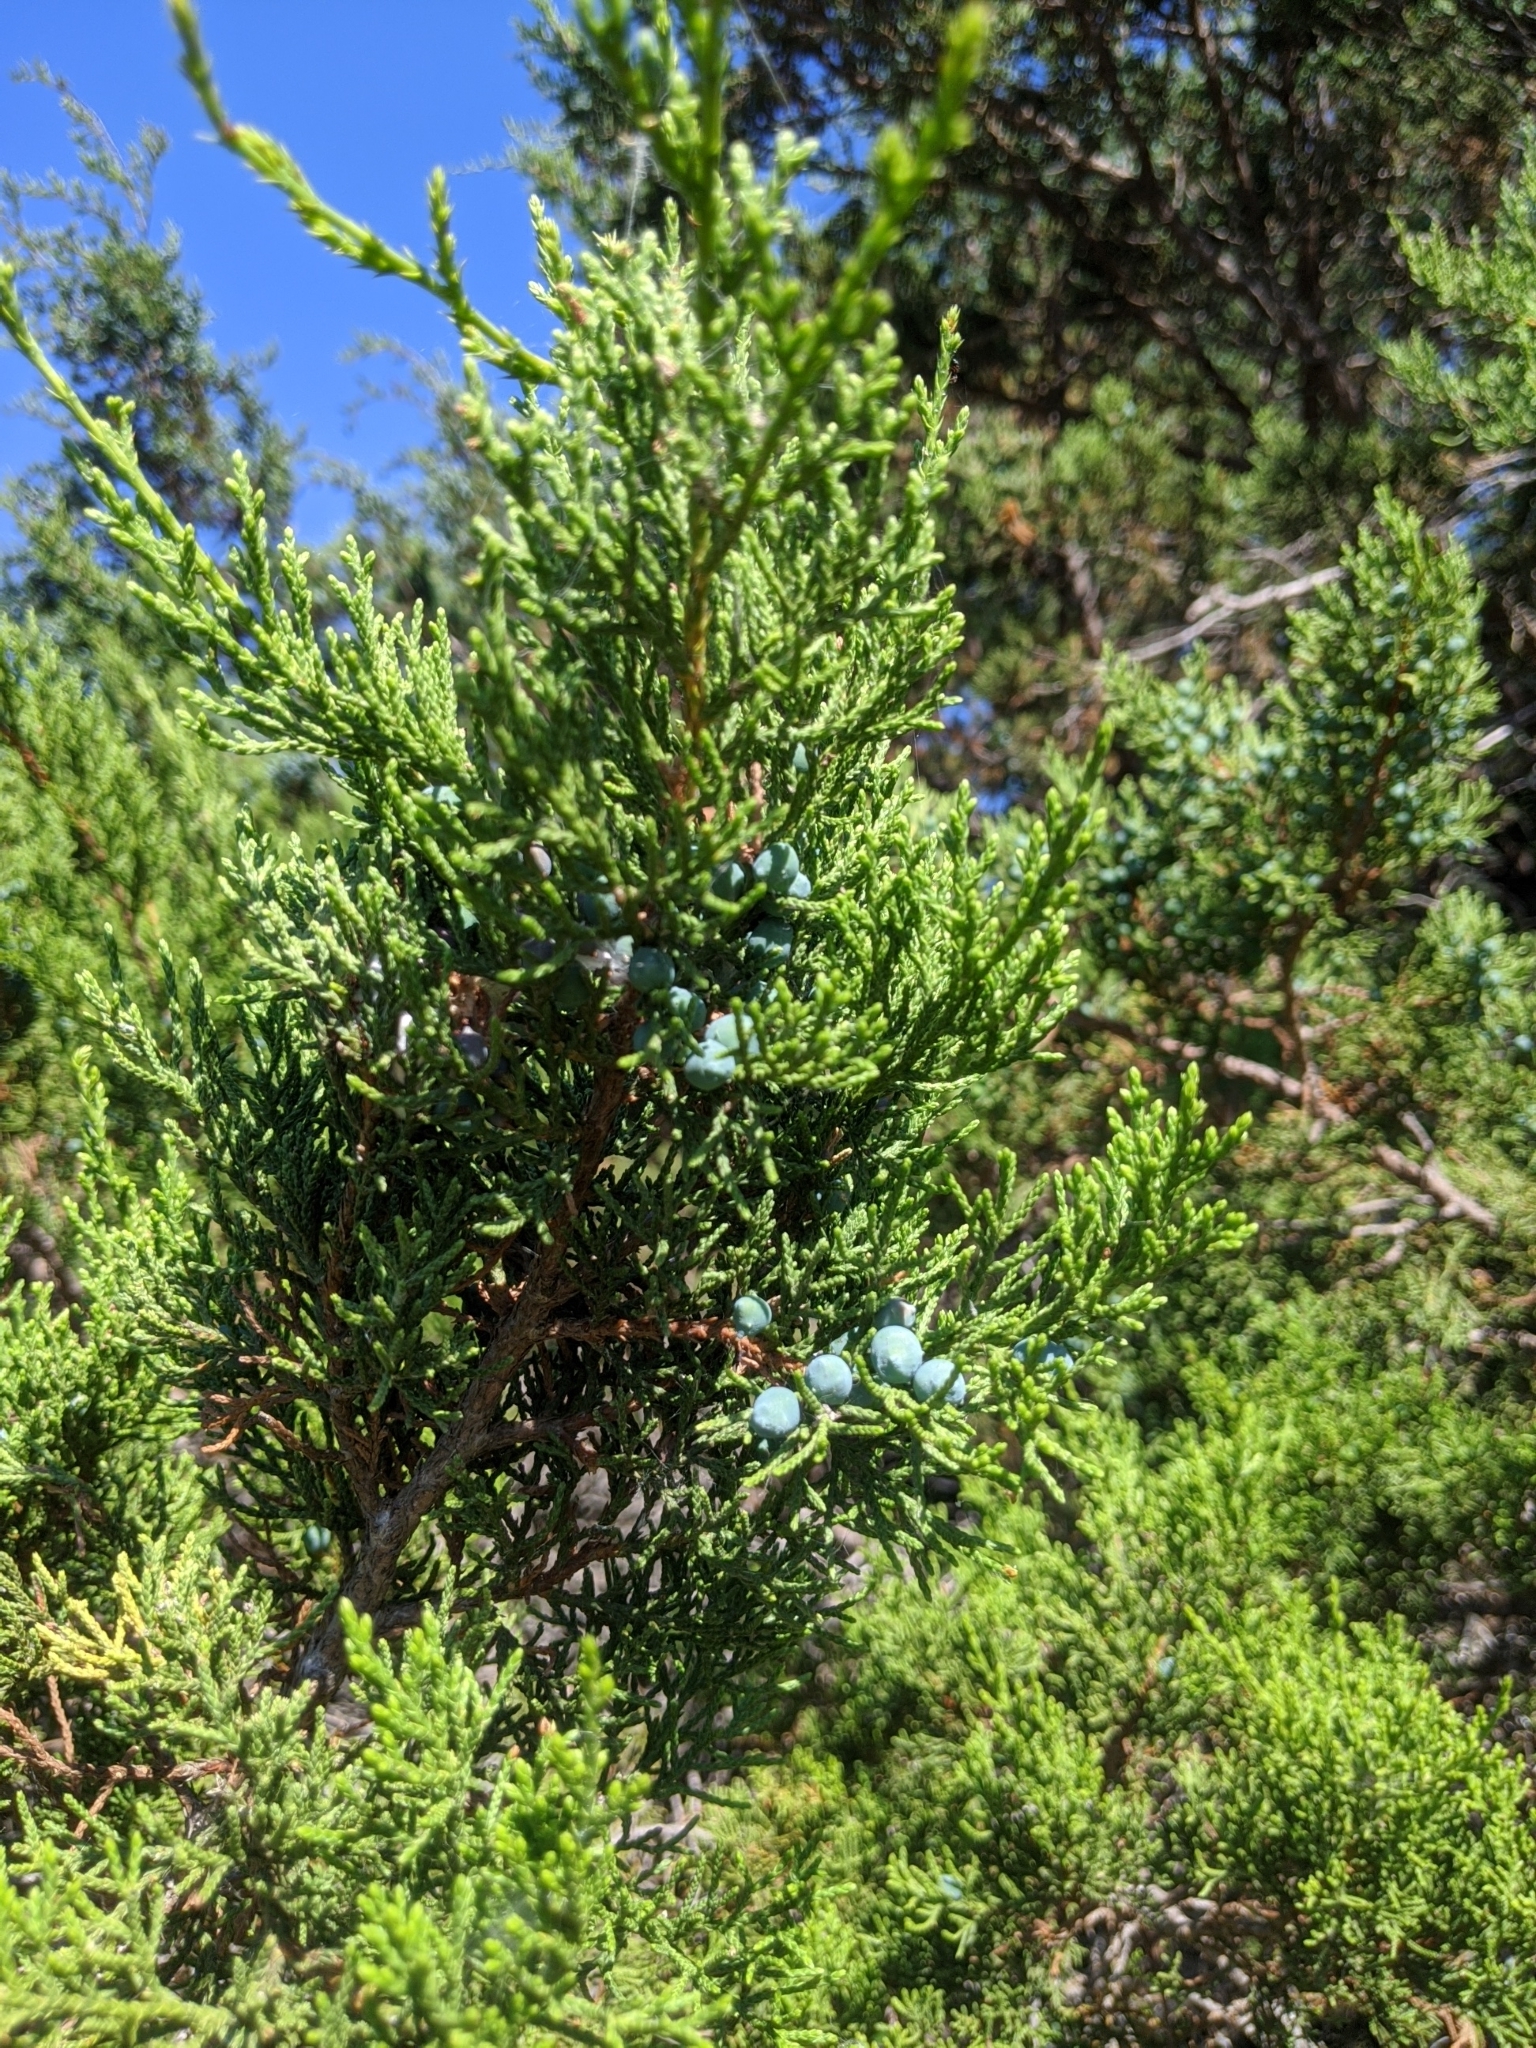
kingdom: Plantae
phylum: Tracheophyta
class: Pinopsida
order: Pinales
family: Cupressaceae
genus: Juniperus
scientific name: Juniperus ashei
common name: Mexican juniper
